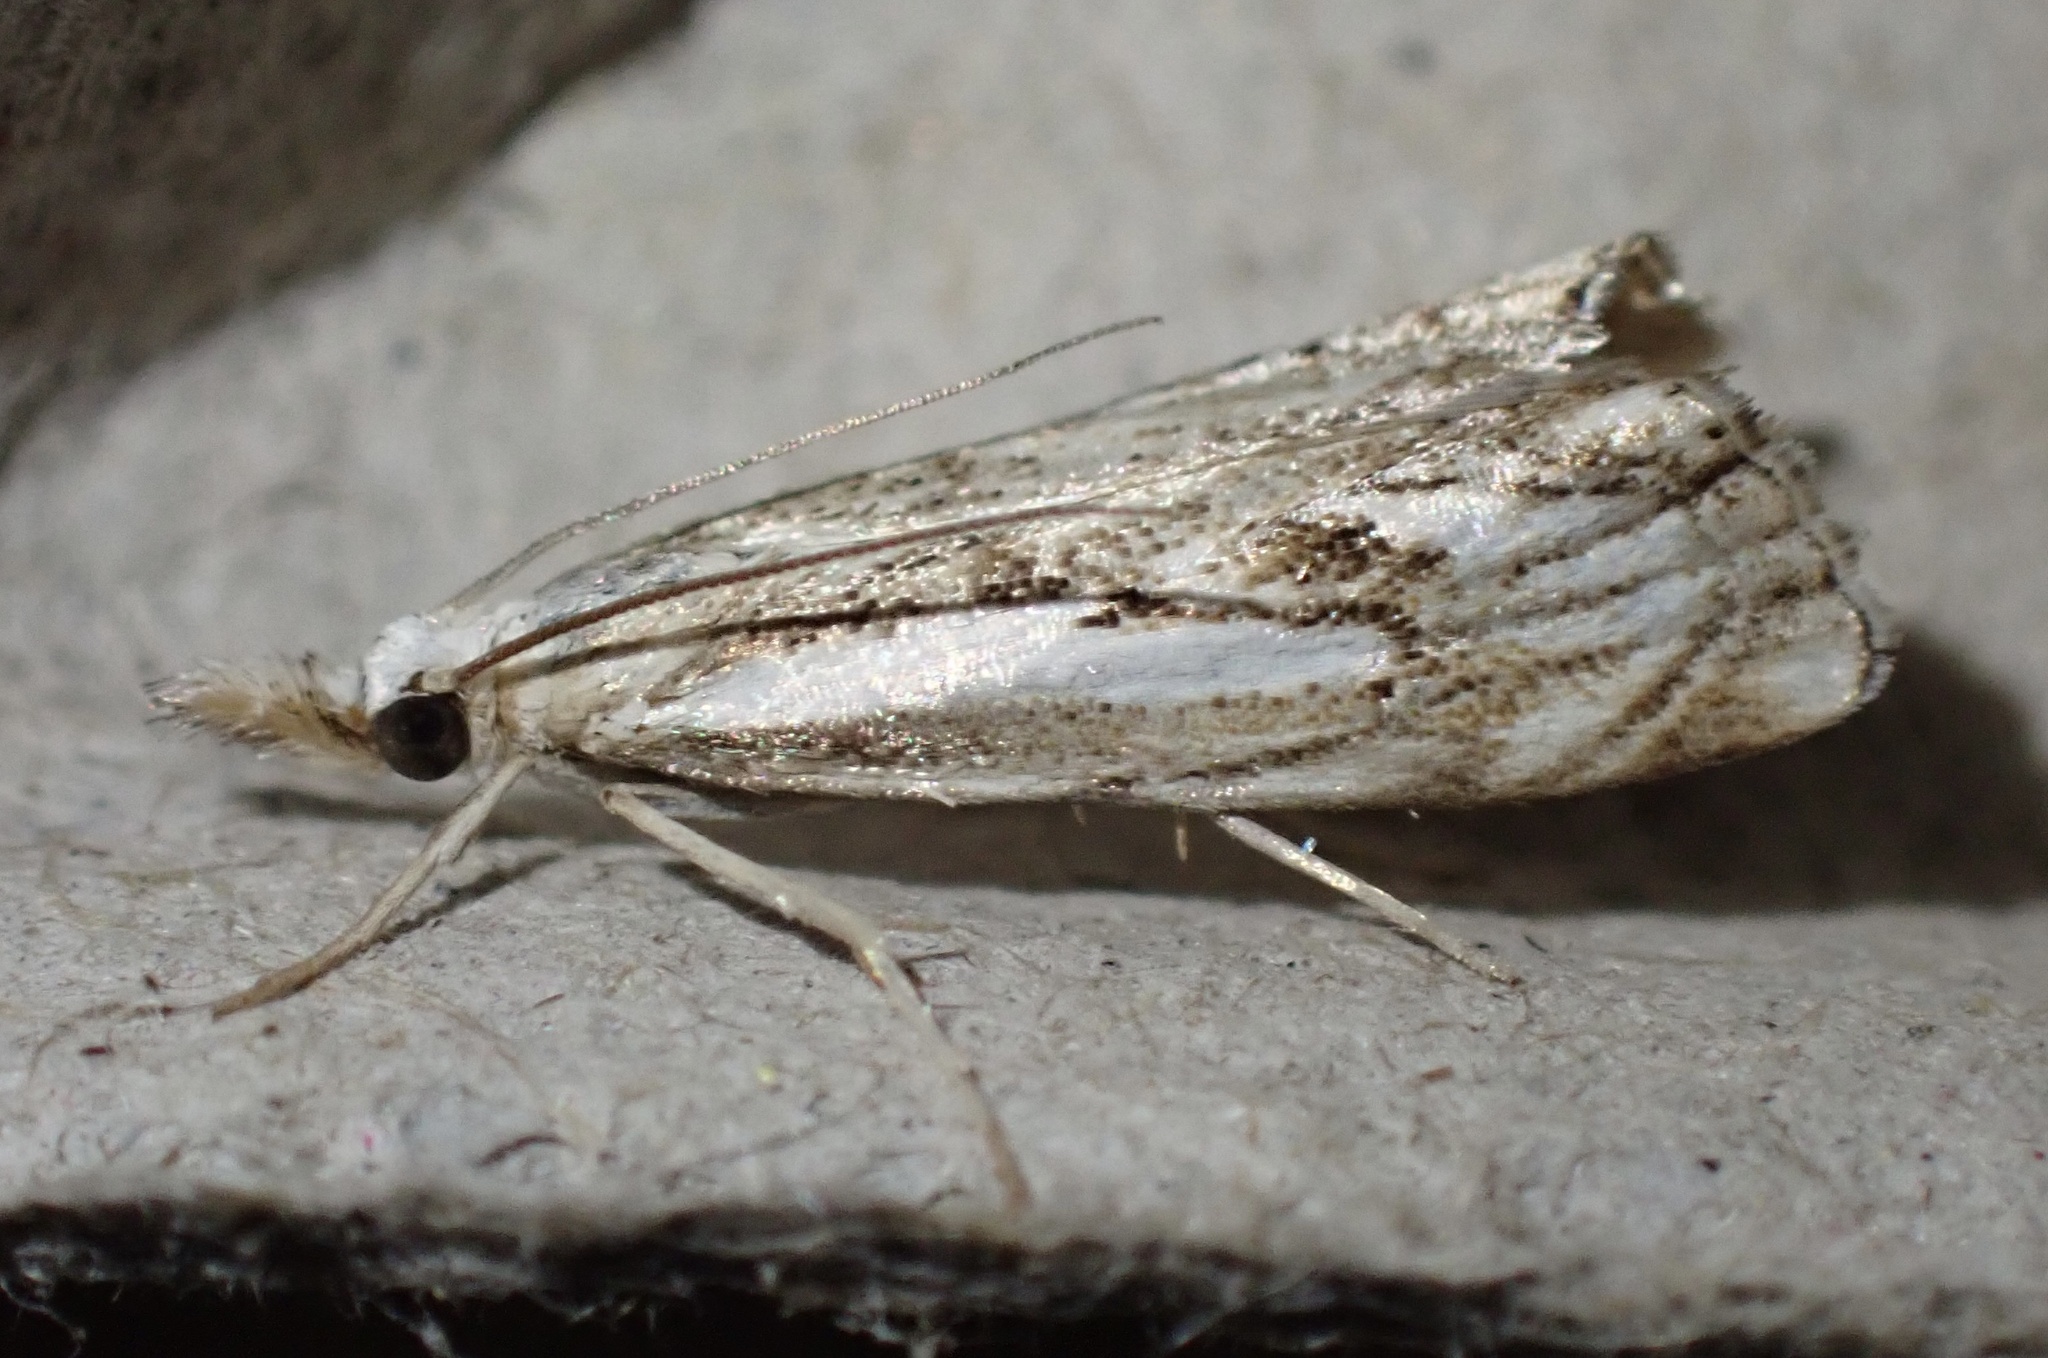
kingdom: Animalia
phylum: Arthropoda
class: Insecta
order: Lepidoptera
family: Crambidae
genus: Catoptria
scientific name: Catoptria falsella
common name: Chequered grass-veneer
